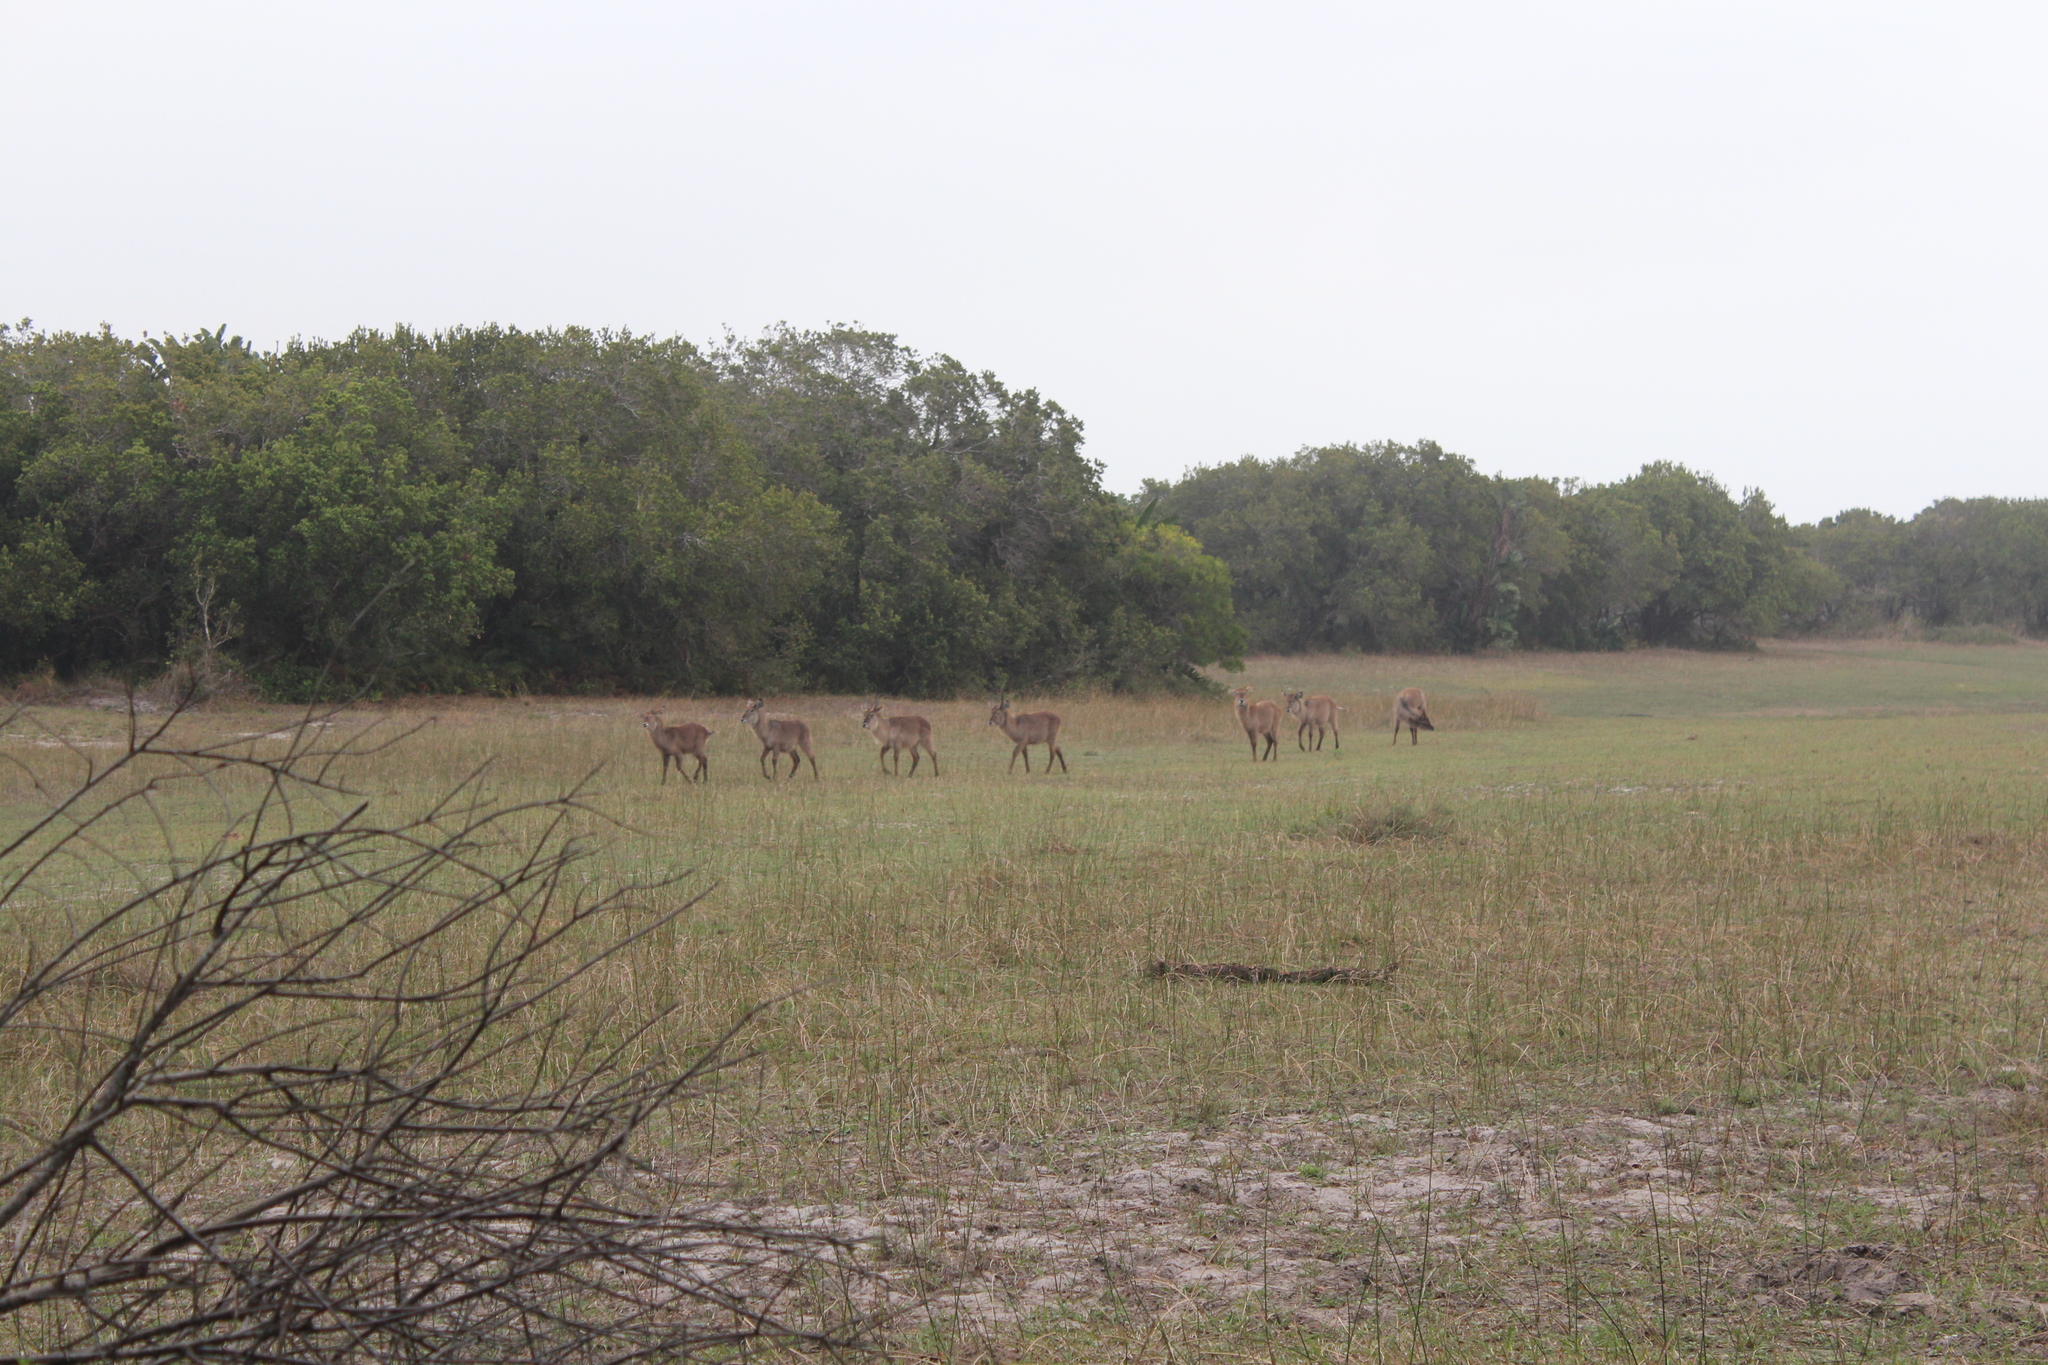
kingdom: Animalia
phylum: Chordata
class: Mammalia
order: Artiodactyla
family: Bovidae
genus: Kobus
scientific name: Kobus ellipsiprymnus
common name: Waterbuck
